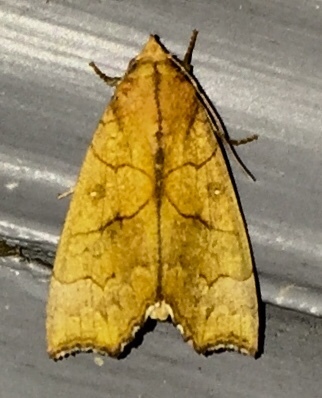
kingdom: Animalia
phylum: Arthropoda
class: Insecta
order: Lepidoptera
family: Erebidae
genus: Anomis
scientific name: Anomis erosa
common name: Yellow scallop moth
